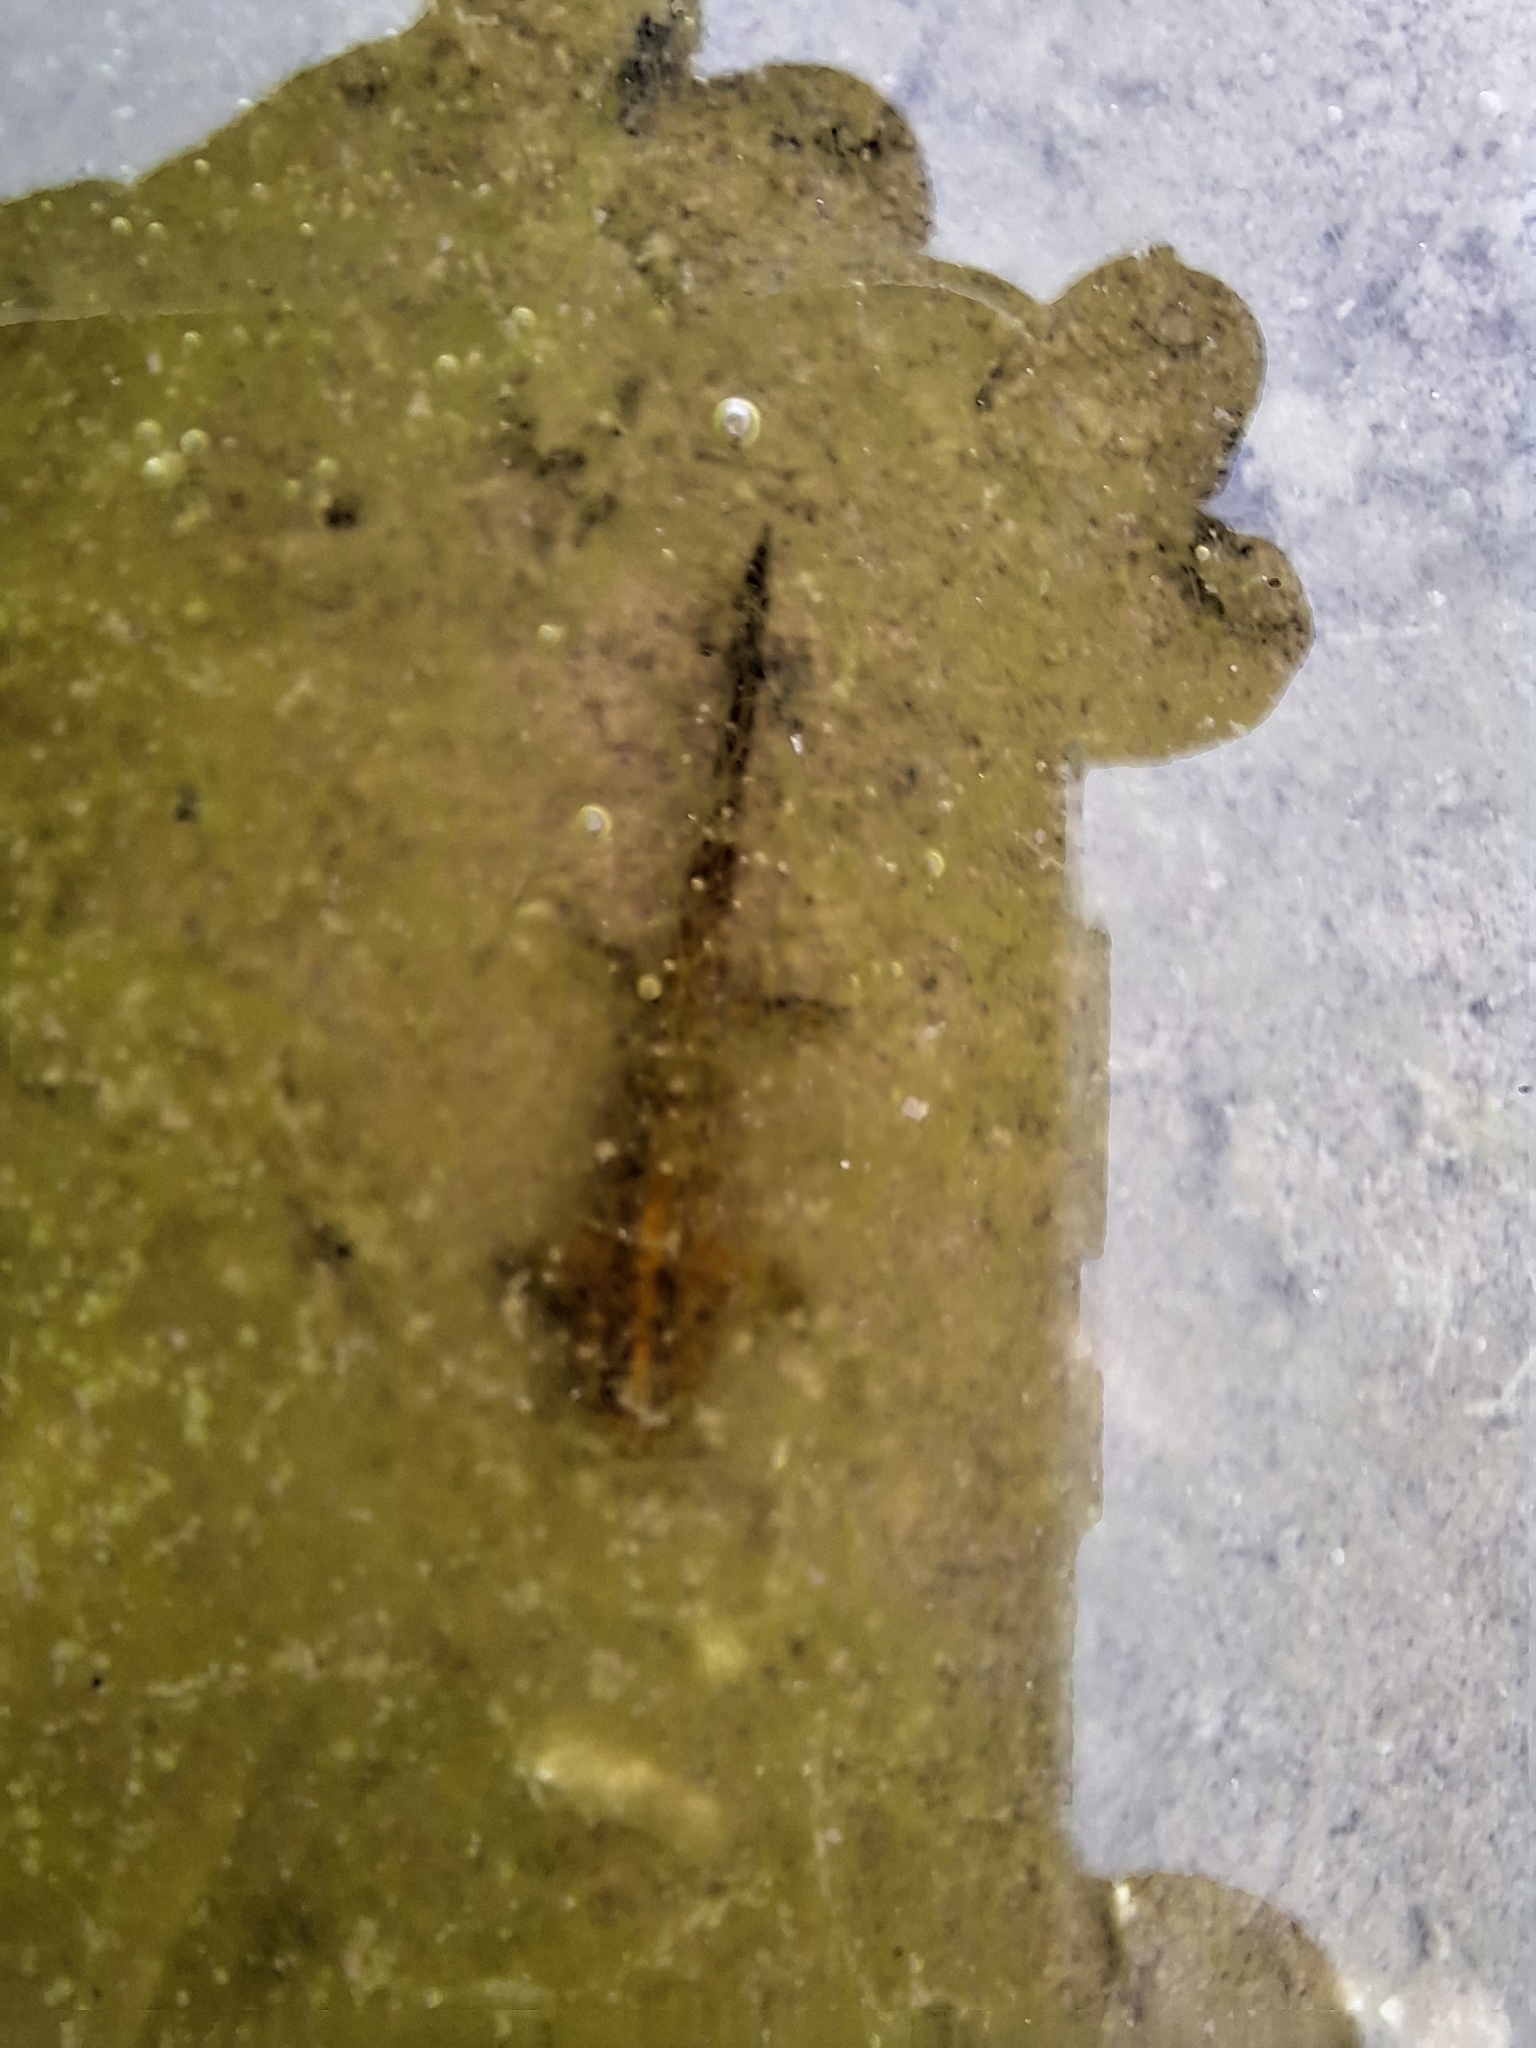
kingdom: Animalia
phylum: Chordata
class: Amphibia
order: Caudata
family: Salamandridae
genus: Ichthyosaura
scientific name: Ichthyosaura alpestris
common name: Alpine newt
